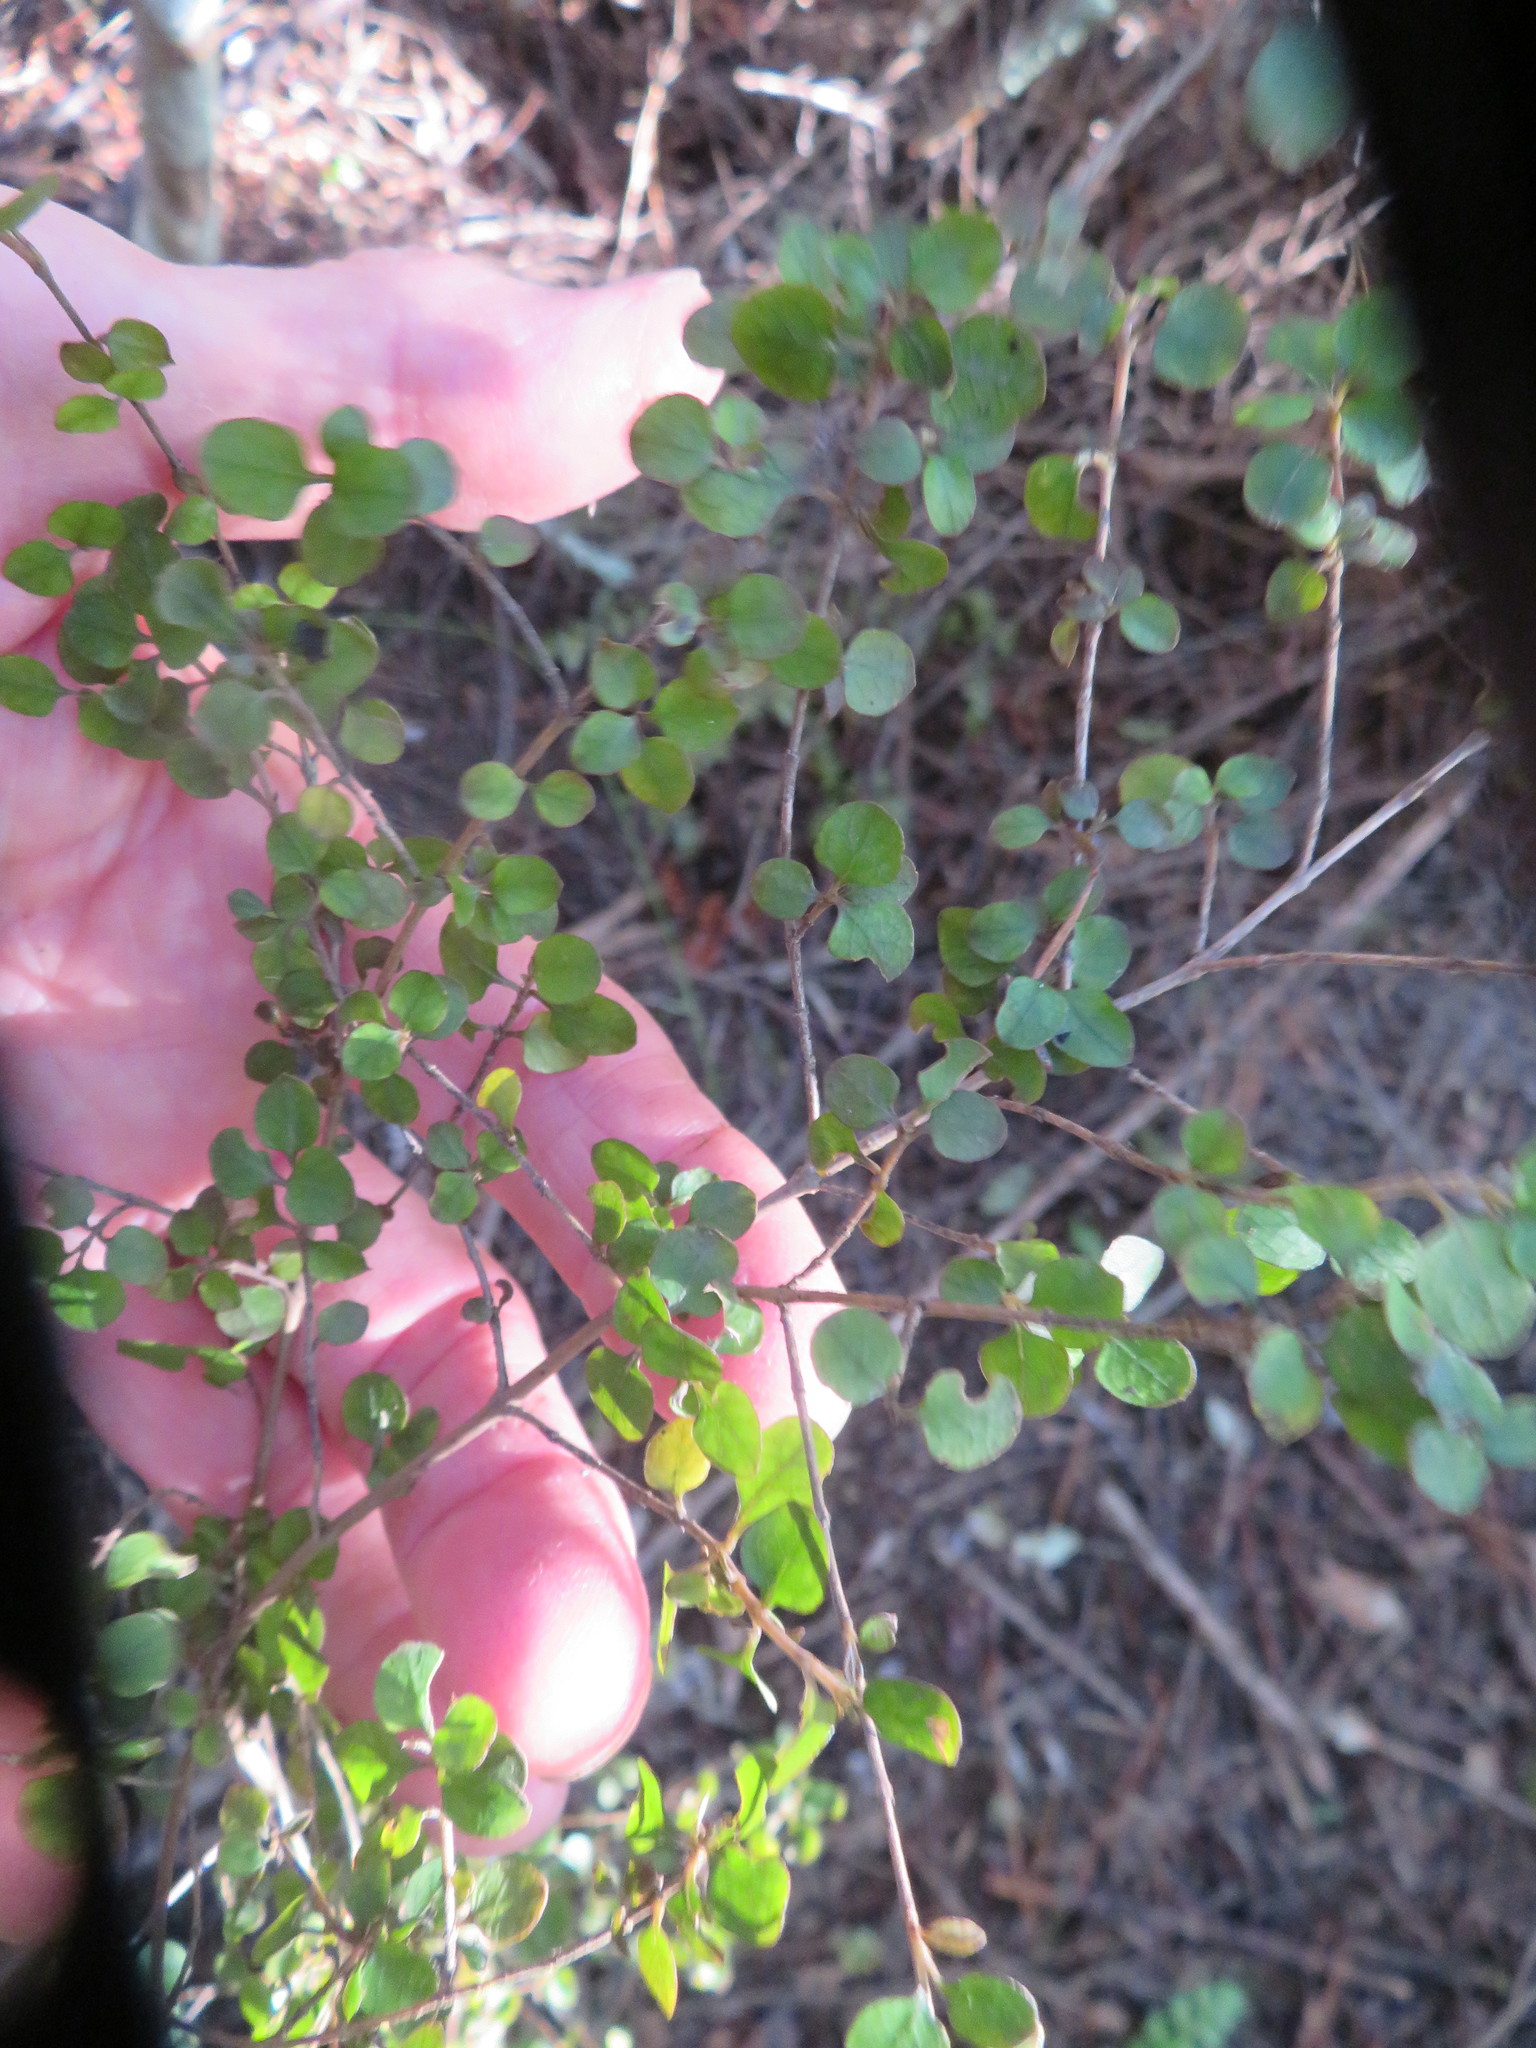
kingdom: Plantae
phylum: Tracheophyta
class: Magnoliopsida
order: Gentianales
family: Rubiaceae
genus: Coprosma
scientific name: Coprosma rhamnoides
